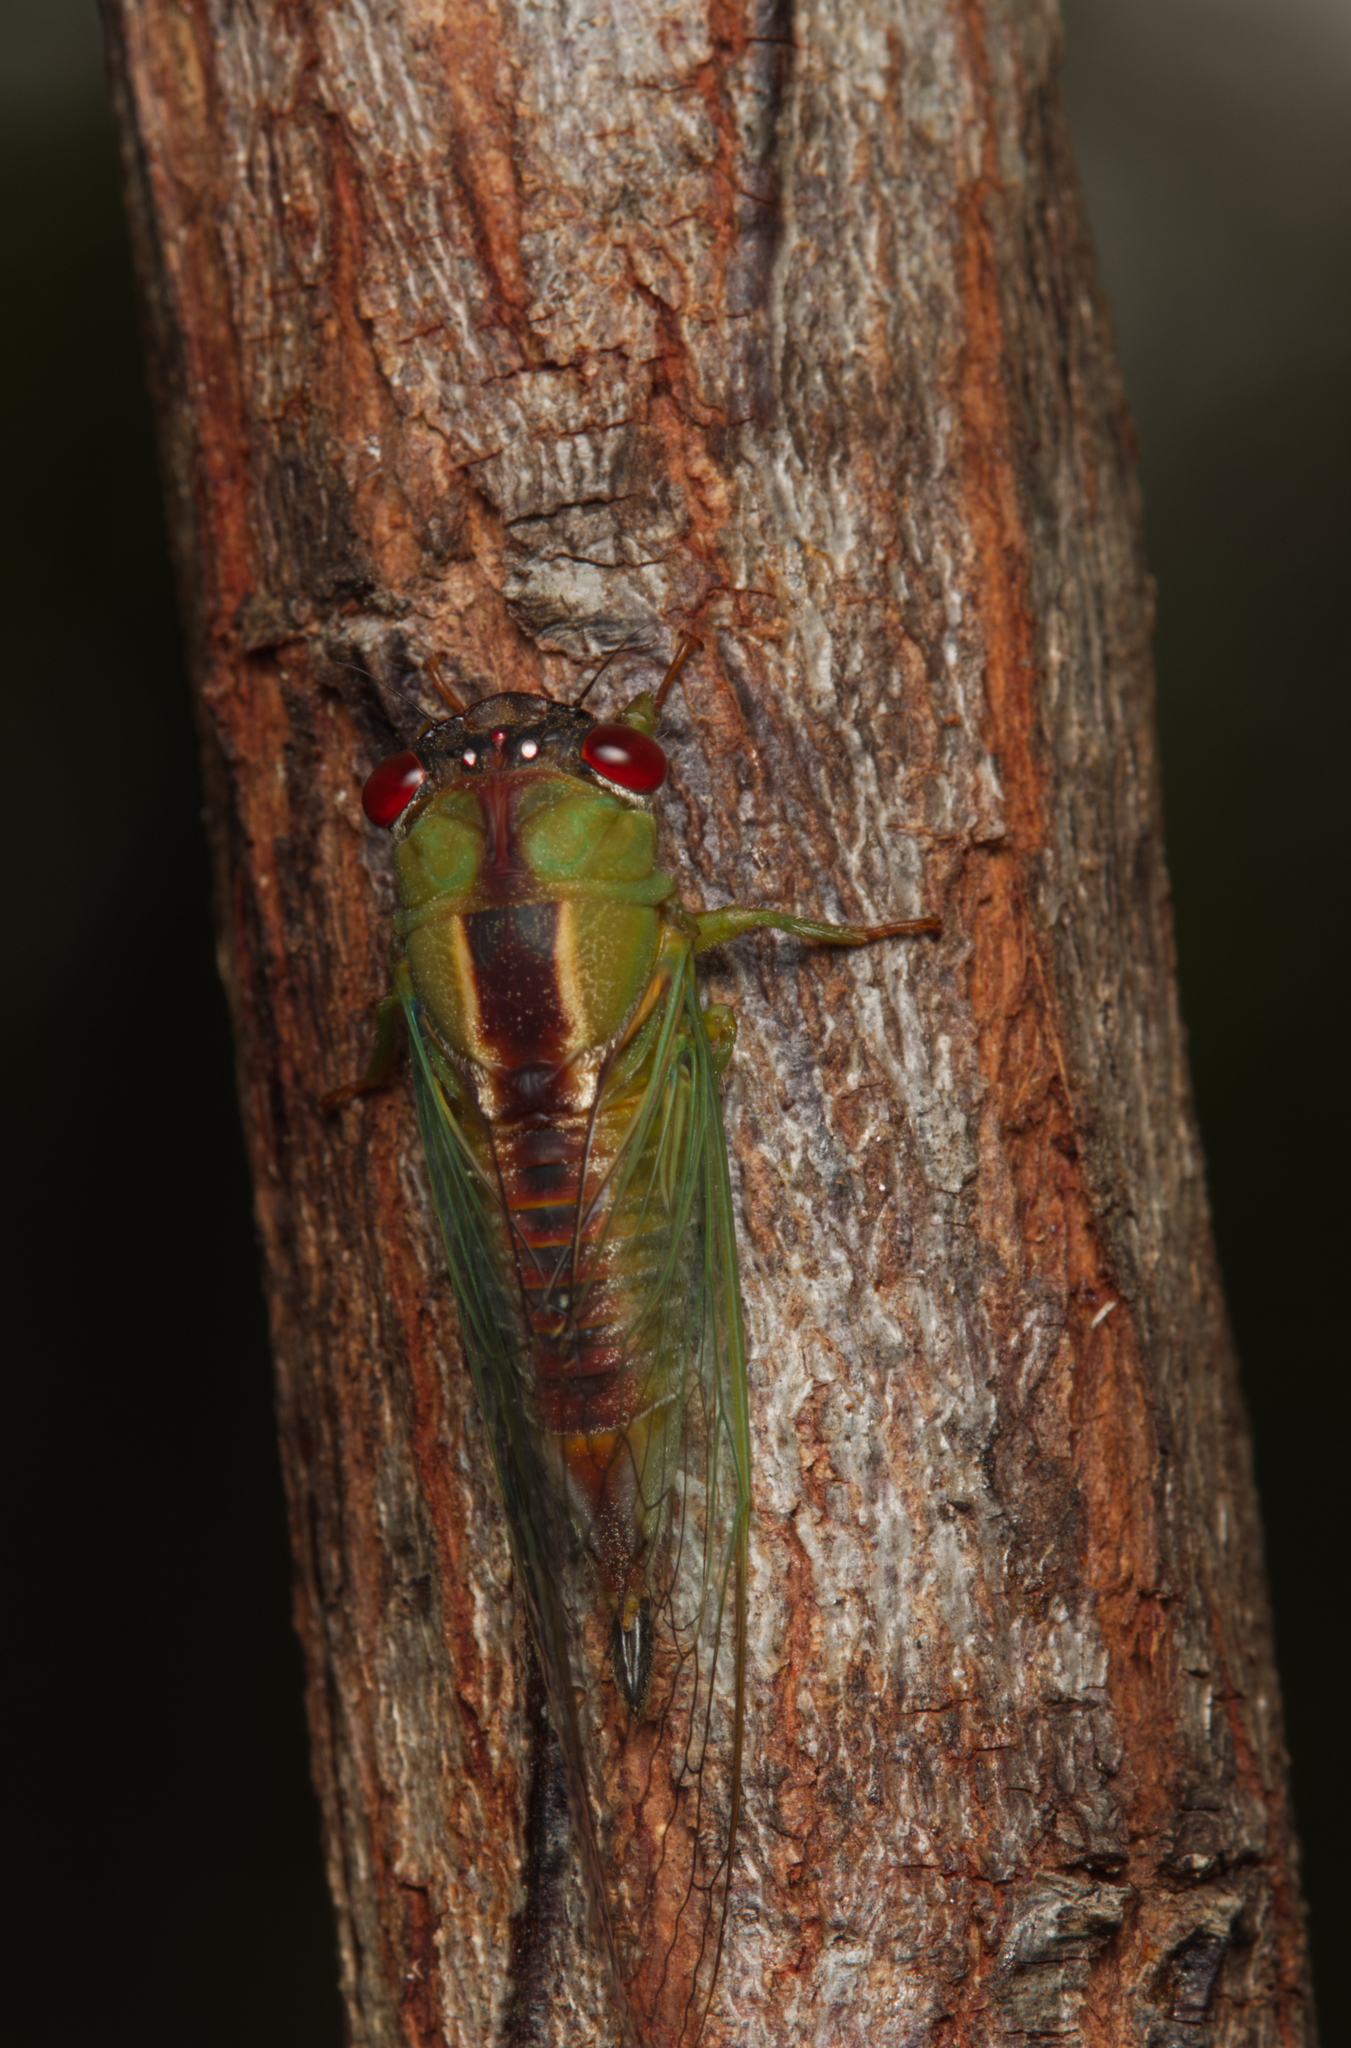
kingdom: Animalia
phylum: Arthropoda
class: Insecta
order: Hemiptera
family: Cicadidae
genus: Ewartia
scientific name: Ewartia oldfieldi
